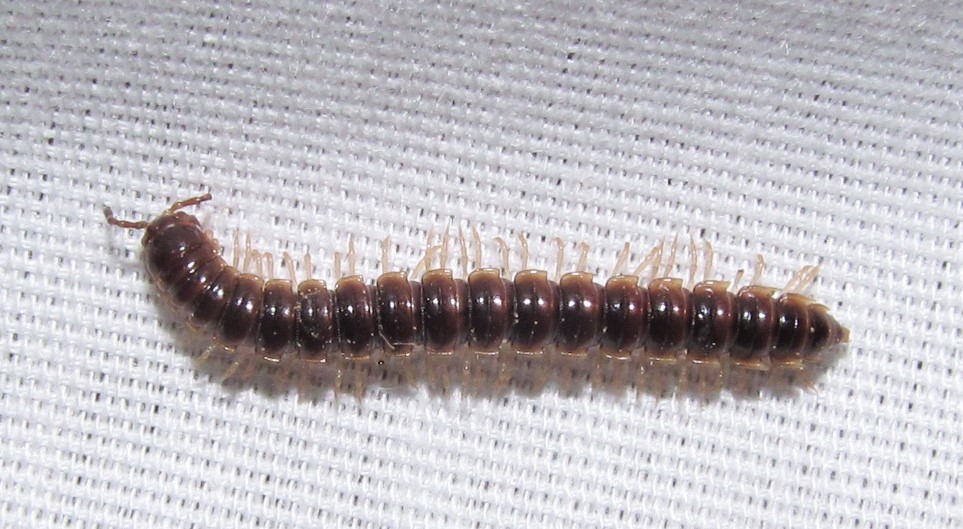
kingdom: Animalia
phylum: Arthropoda
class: Diplopoda
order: Polydesmida
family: Paradoxosomatidae
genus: Oxidus
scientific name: Oxidus gracilis
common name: Greenhouse millipede
